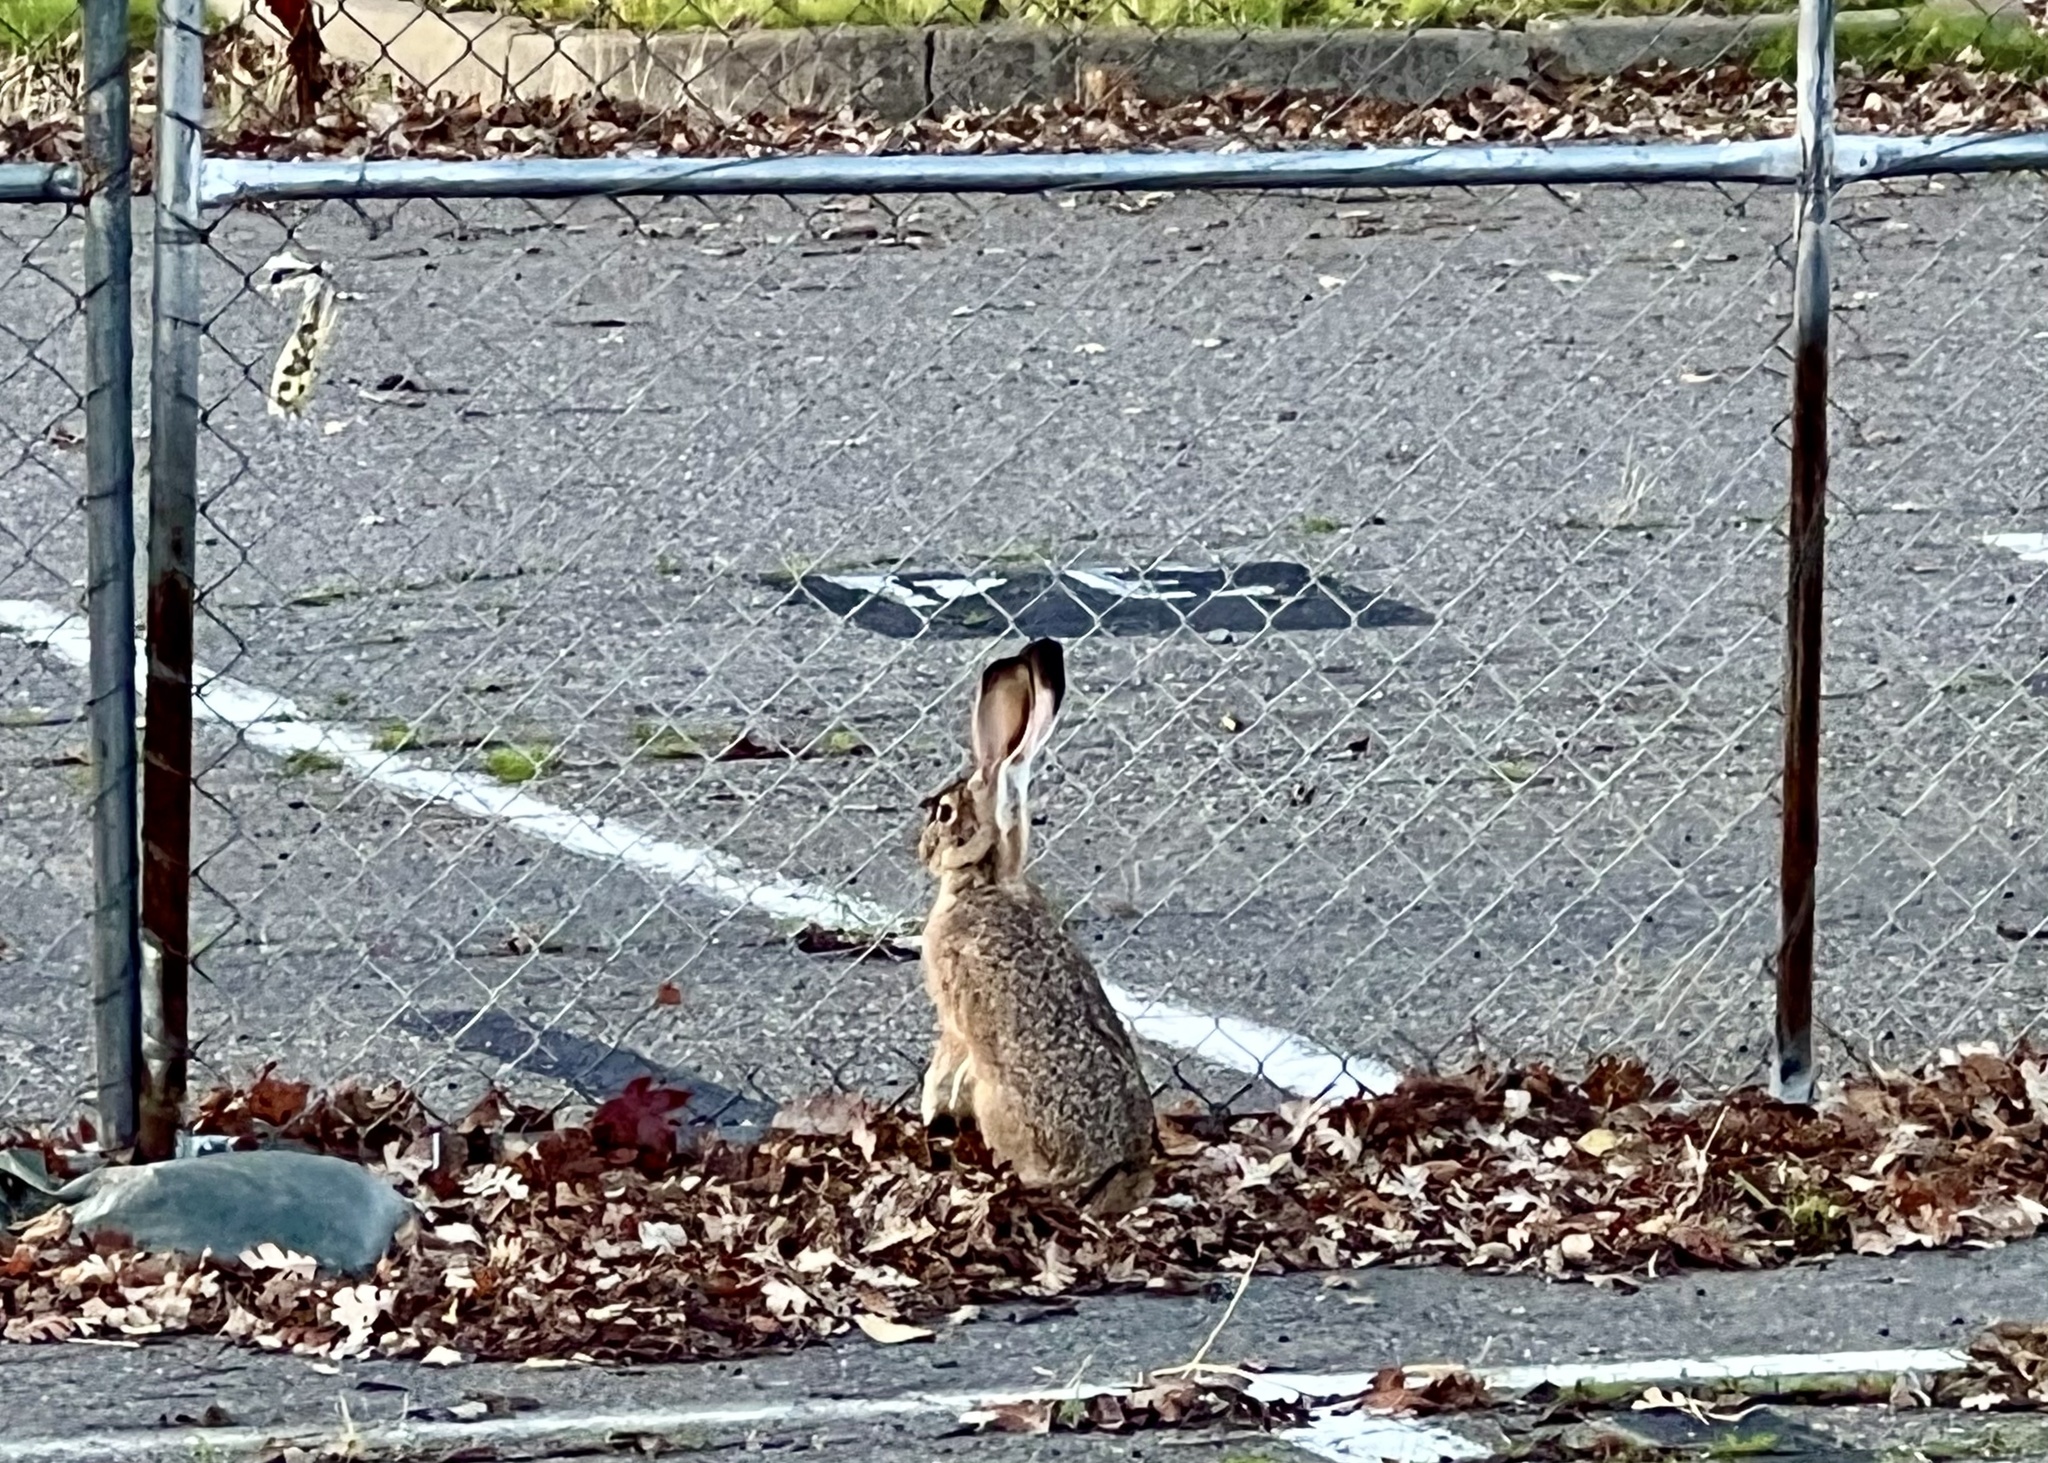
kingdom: Animalia
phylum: Chordata
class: Mammalia
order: Lagomorpha
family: Leporidae
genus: Lepus
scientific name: Lepus californicus
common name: Black-tailed jackrabbit
